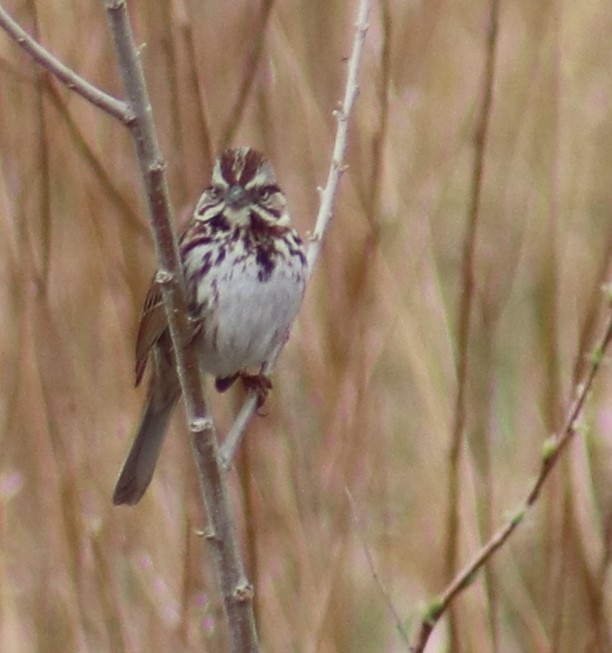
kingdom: Animalia
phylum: Chordata
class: Aves
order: Passeriformes
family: Passerellidae
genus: Melospiza
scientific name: Melospiza melodia
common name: Song sparrow
